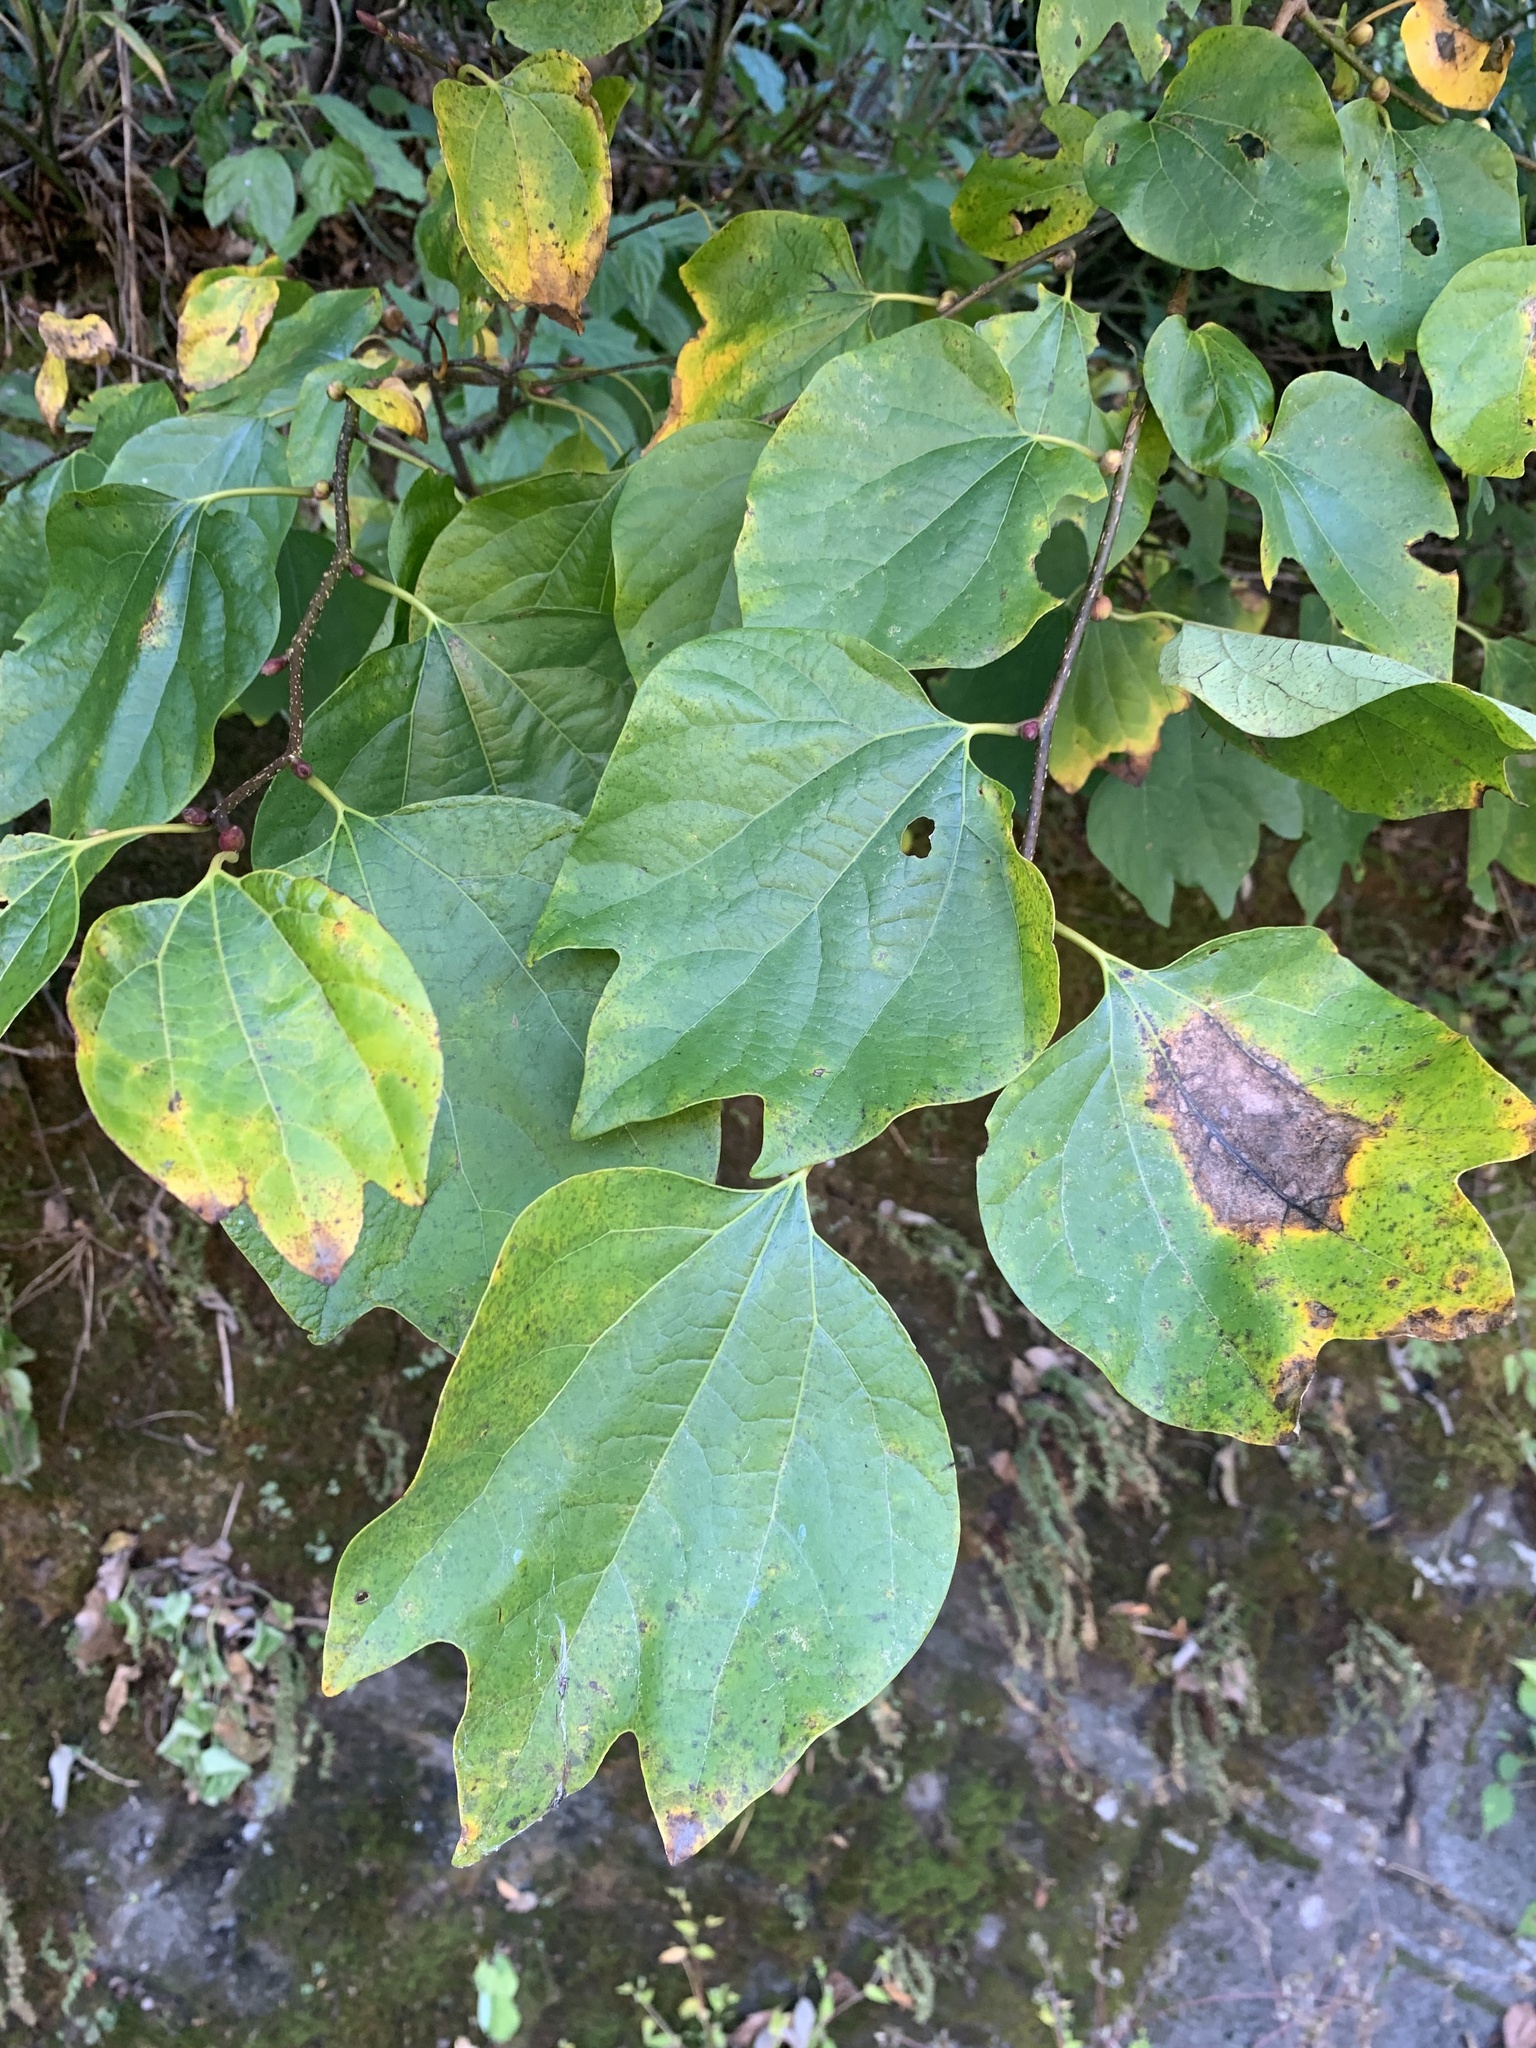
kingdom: Plantae
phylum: Tracheophyta
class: Magnoliopsida
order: Laurales
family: Lauraceae
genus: Lindera
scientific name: Lindera obtusiloba
